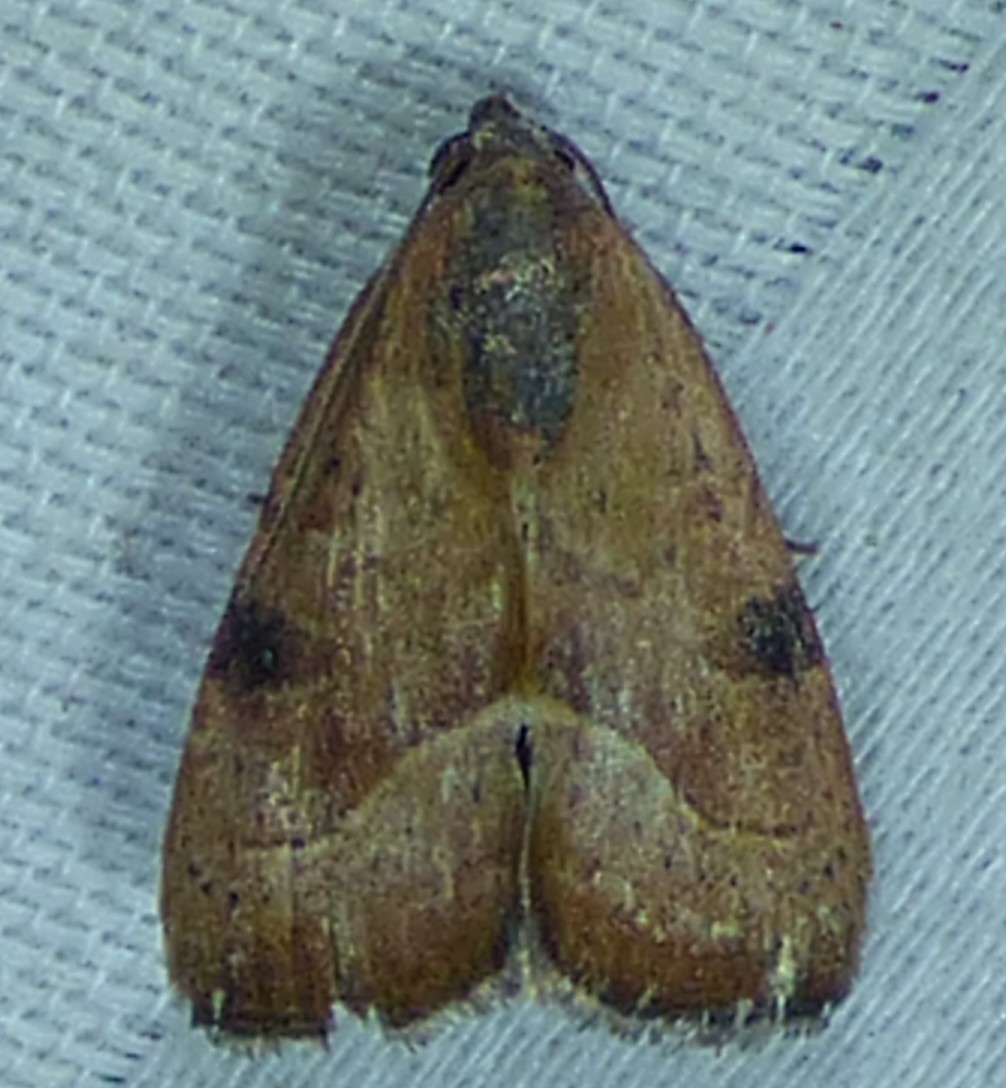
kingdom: Animalia
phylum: Arthropoda
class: Insecta
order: Lepidoptera
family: Noctuidae
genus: Galgula
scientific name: Galgula partita
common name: Wedgeling
